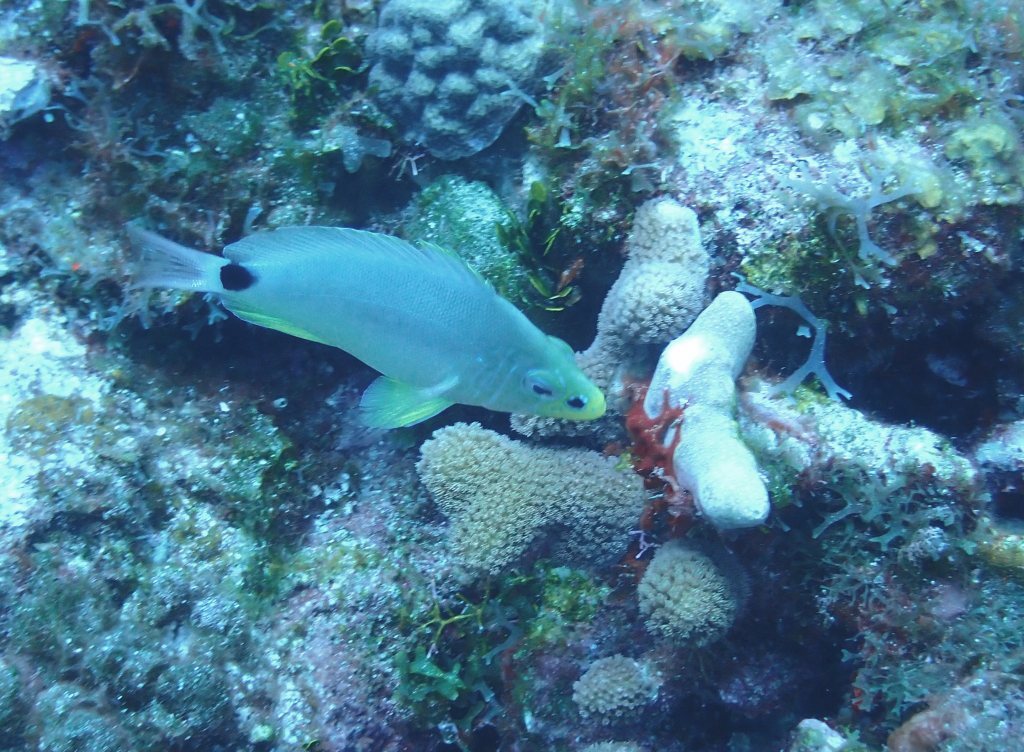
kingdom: Animalia
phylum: Chordata
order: Perciformes
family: Serranidae
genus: Hypoplectrus
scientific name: Hypoplectrus unicolor
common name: Butter hamlet
